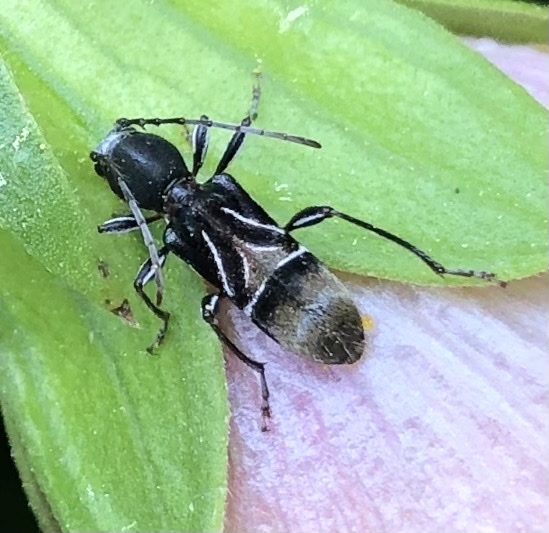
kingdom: Animalia
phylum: Arthropoda
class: Insecta
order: Coleoptera
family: Cerambycidae
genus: Cyrtophorus
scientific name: Cyrtophorus verrucosus
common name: Ant-like longhorn beetle
